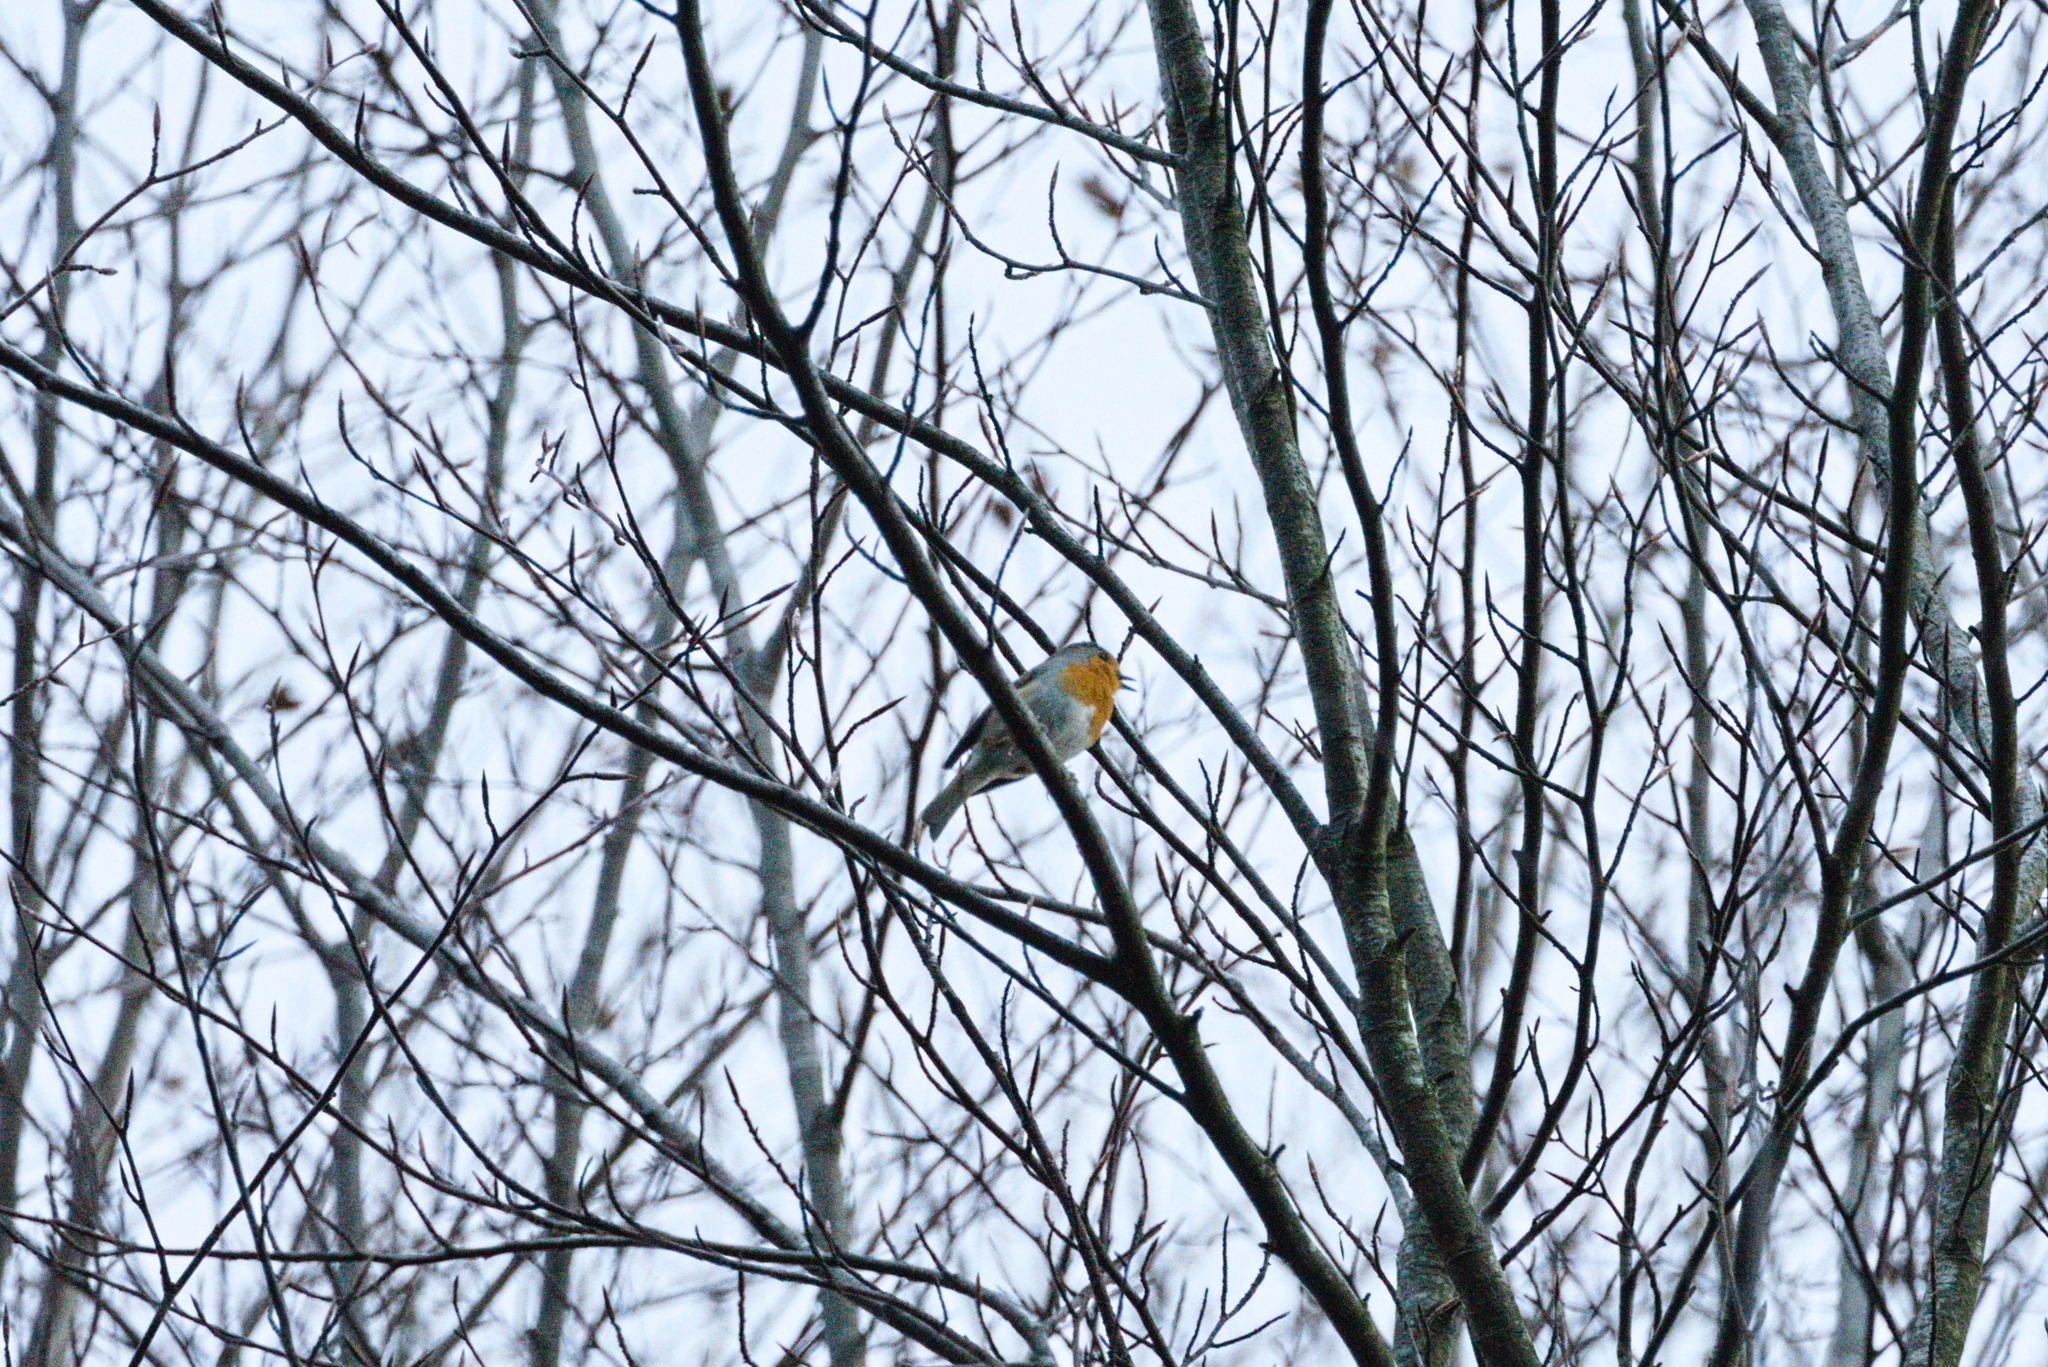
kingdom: Animalia
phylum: Chordata
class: Aves
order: Passeriformes
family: Muscicapidae
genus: Erithacus
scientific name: Erithacus rubecula
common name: European robin
